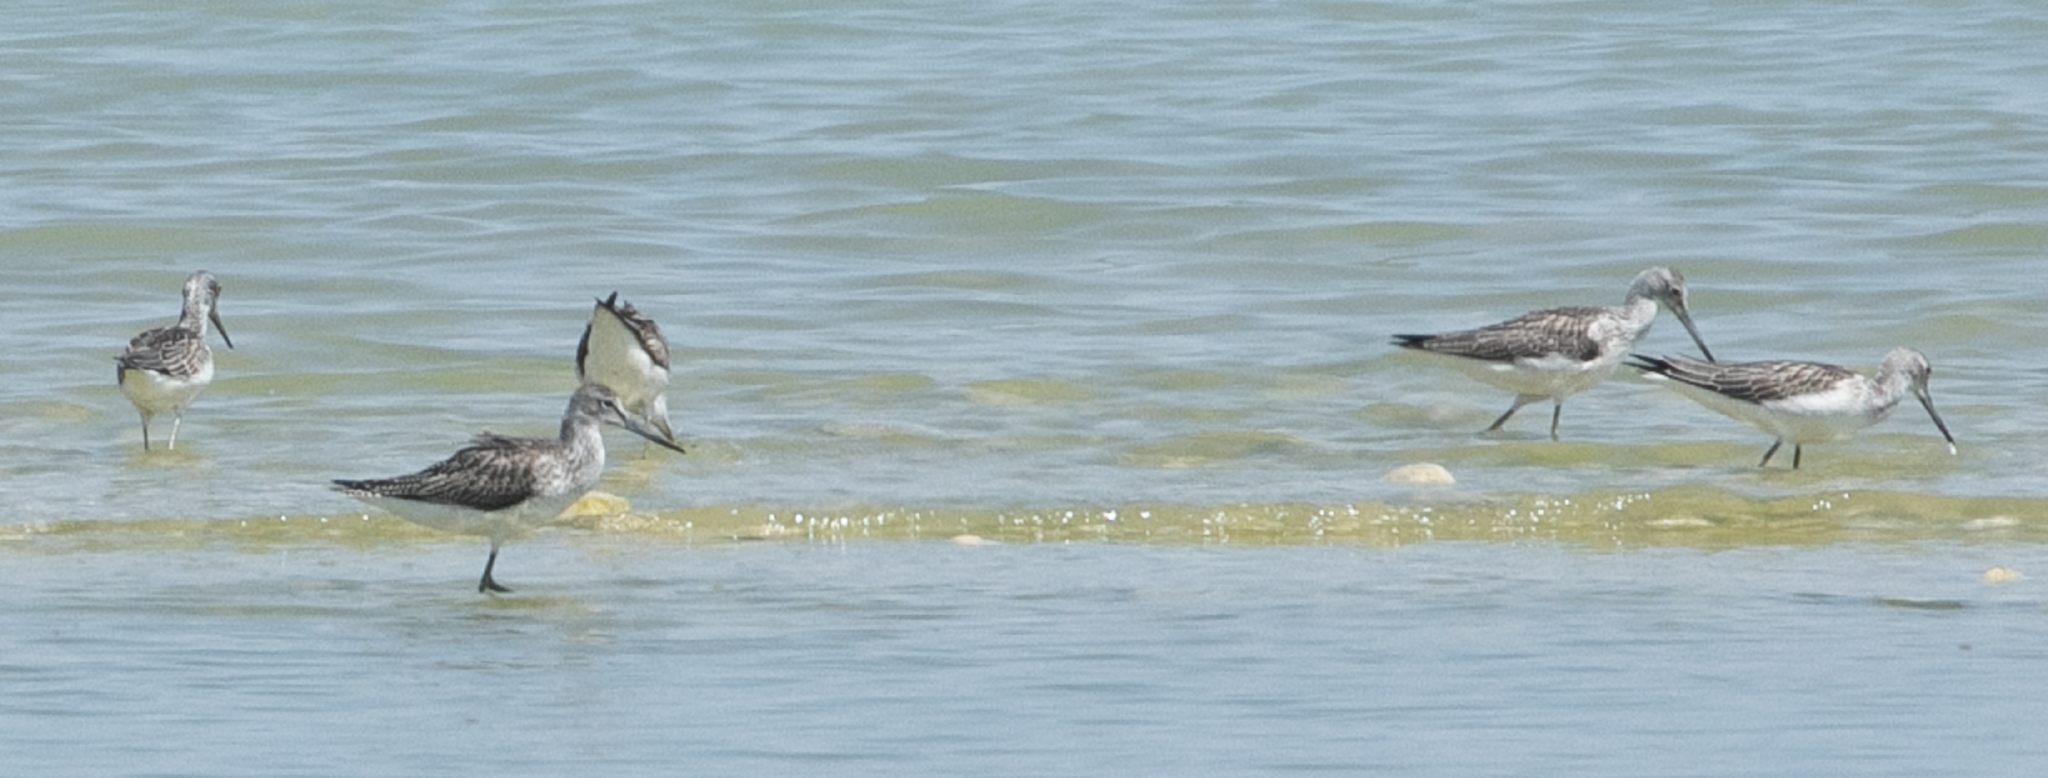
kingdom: Animalia
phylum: Chordata
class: Aves
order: Charadriiformes
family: Scolopacidae
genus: Tringa
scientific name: Tringa nebularia
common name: Common greenshank
